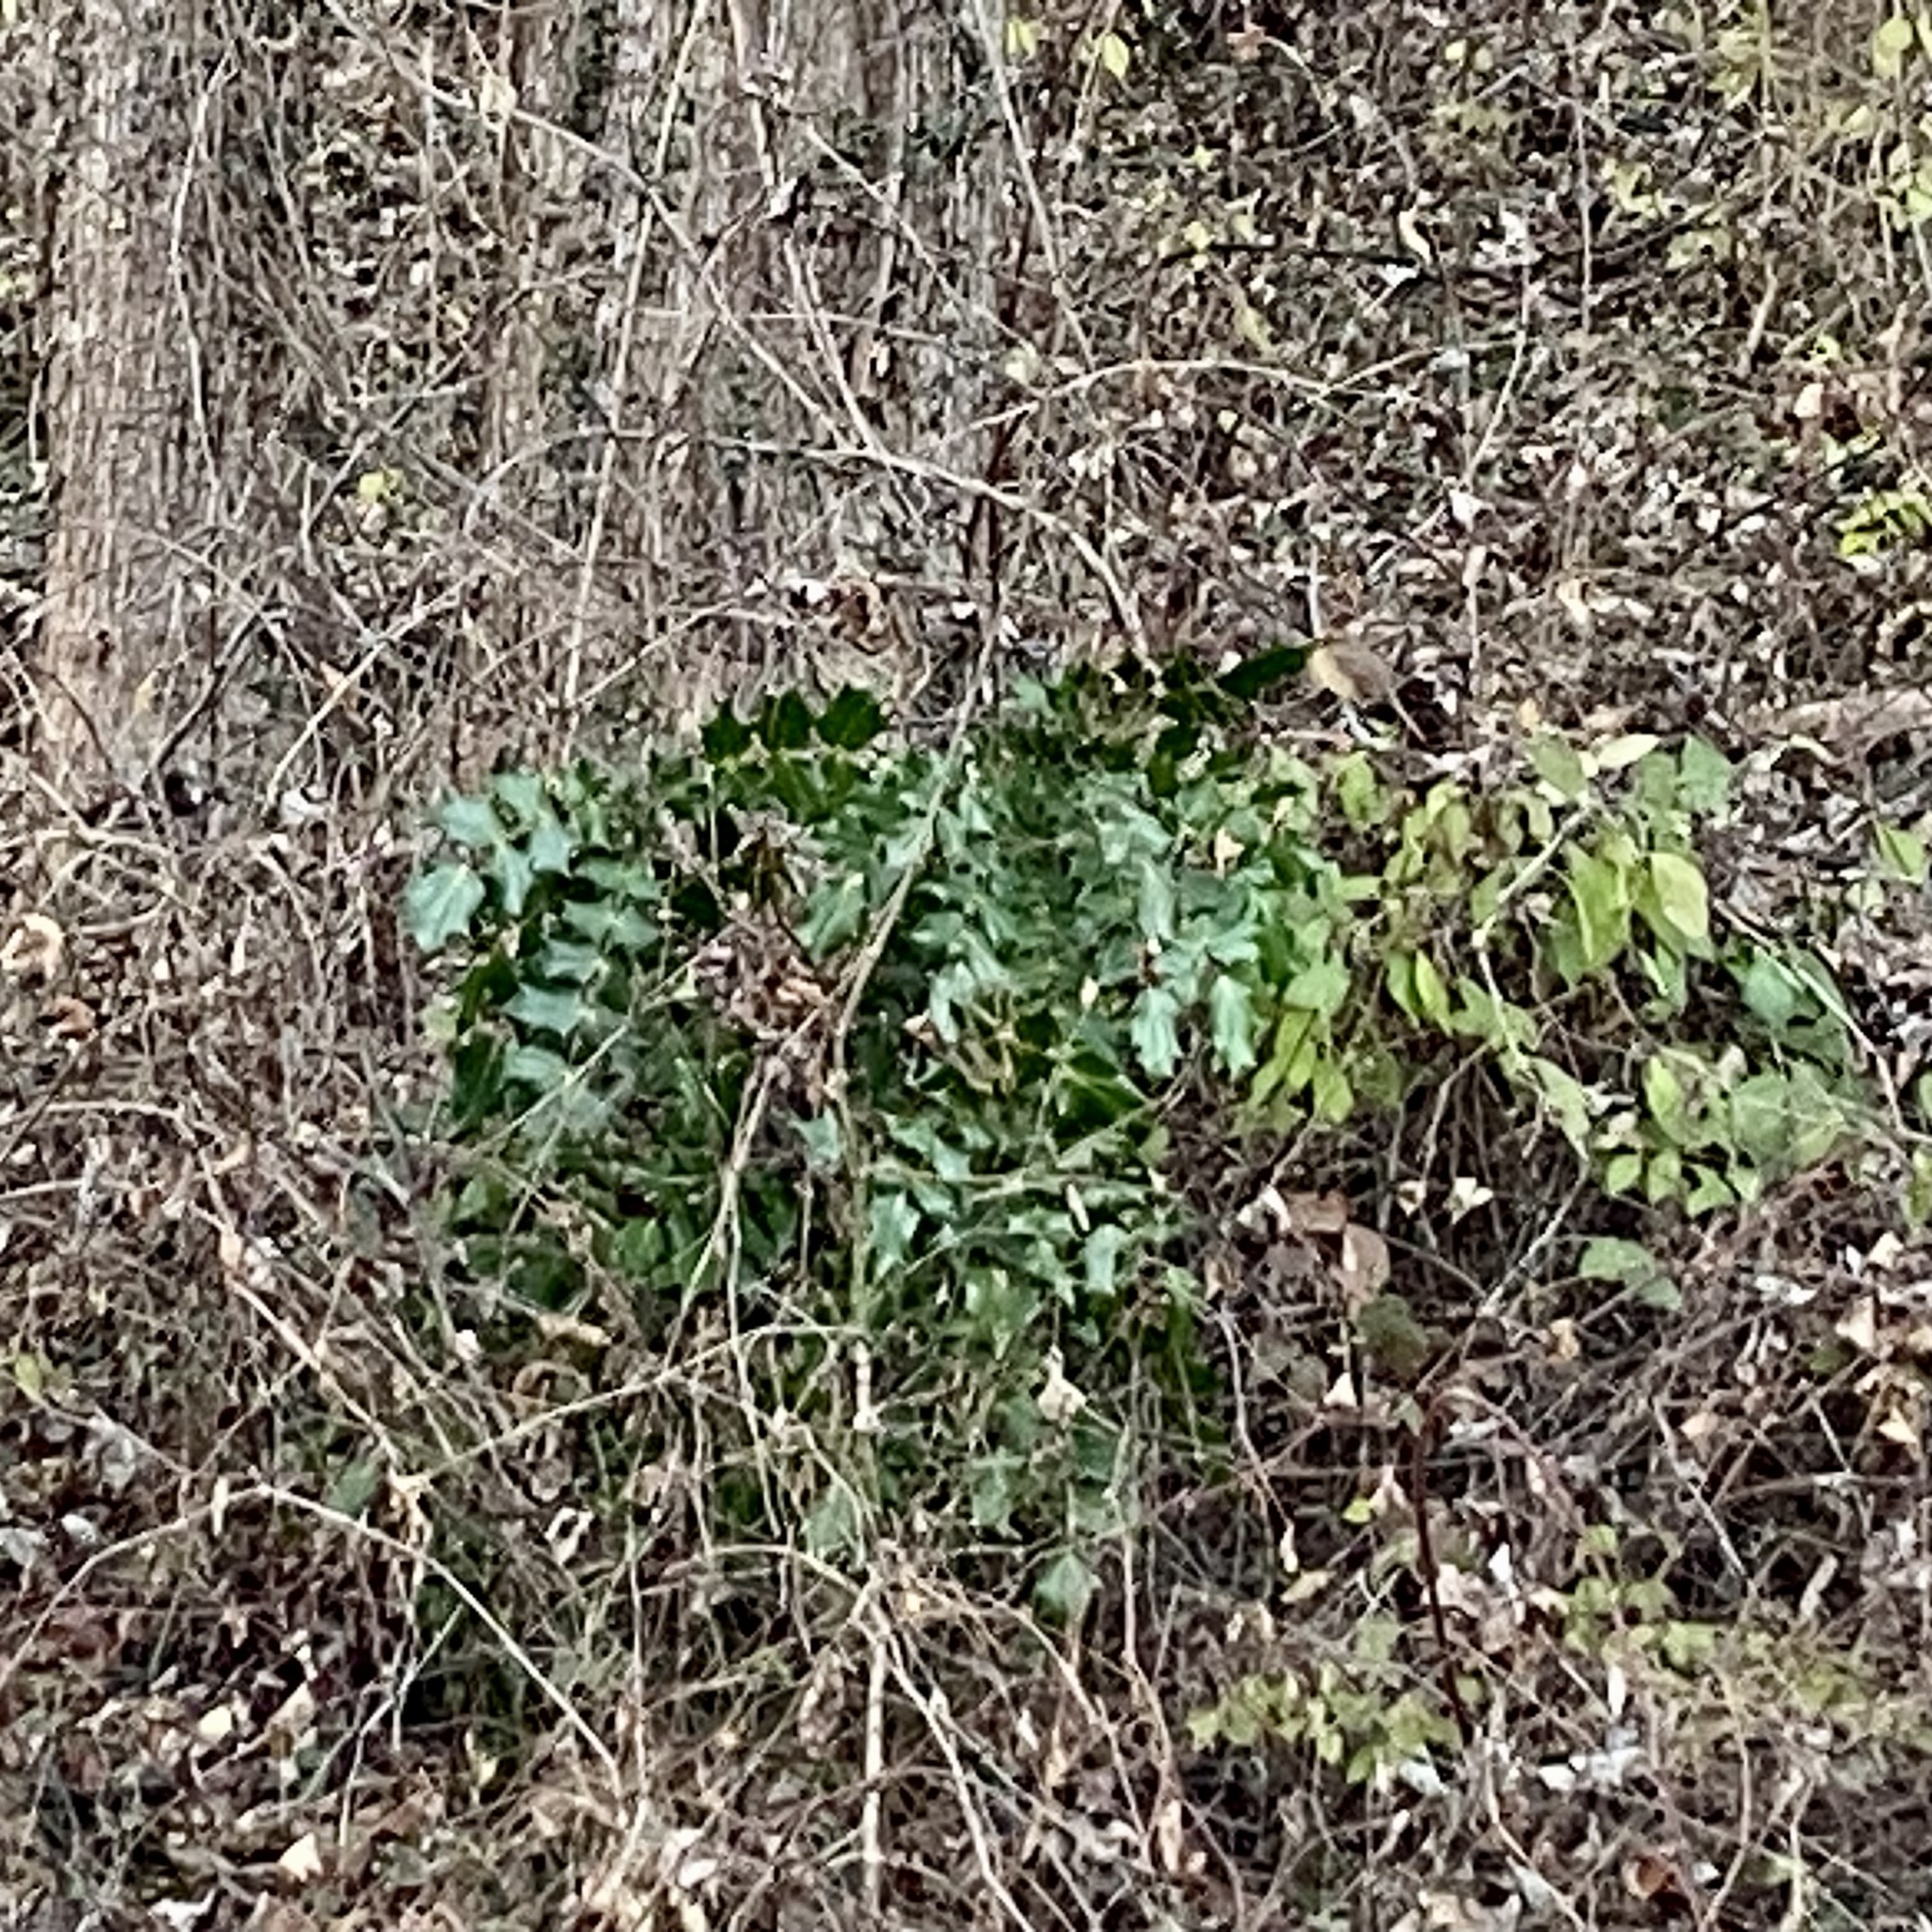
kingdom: Plantae
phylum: Tracheophyta
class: Magnoliopsida
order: Ranunculales
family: Berberidaceae
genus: Mahonia
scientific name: Mahonia bealei
